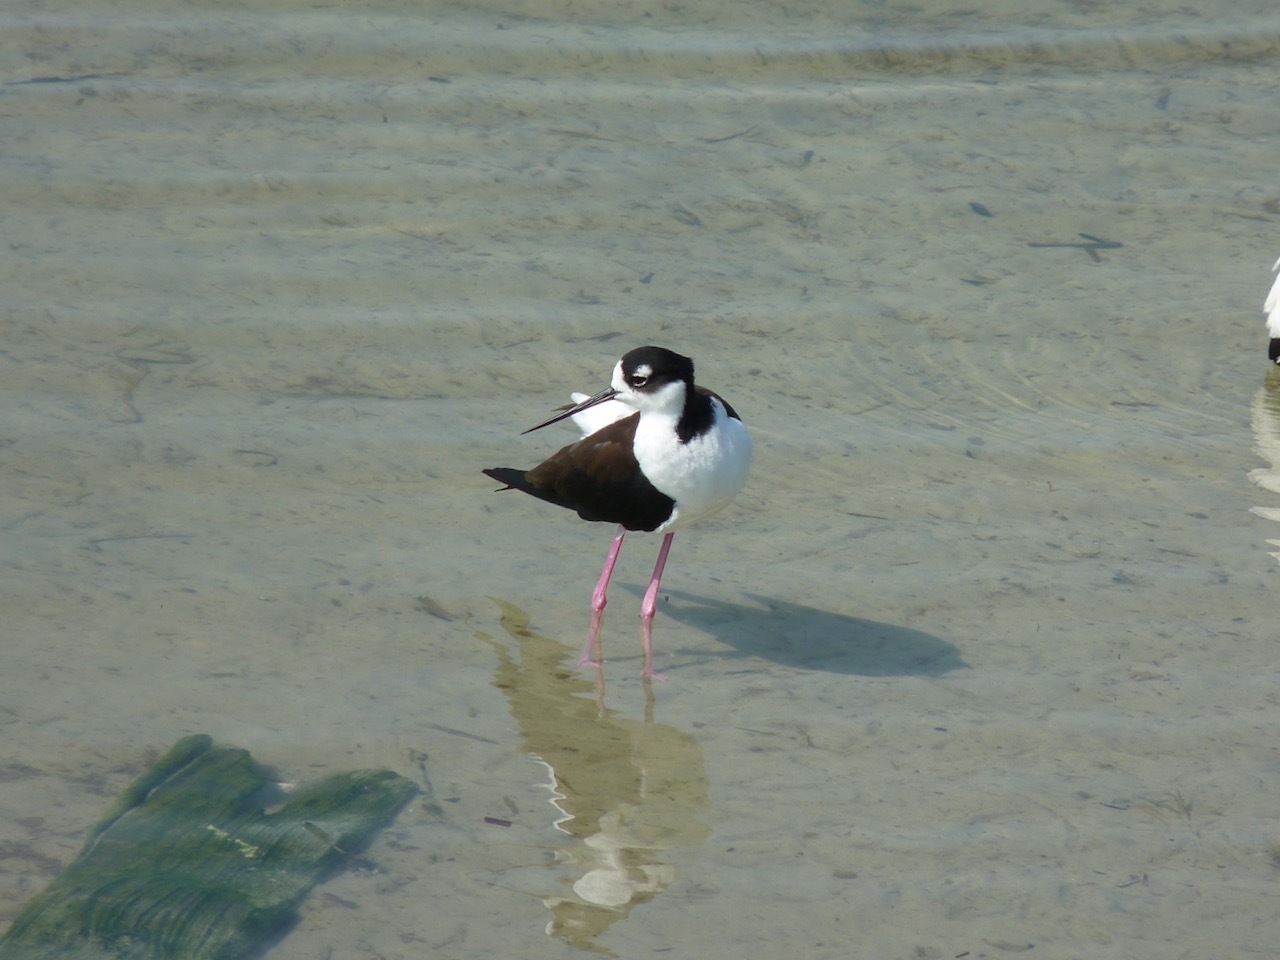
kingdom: Animalia
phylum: Chordata
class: Aves
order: Charadriiformes
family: Recurvirostridae
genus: Himantopus
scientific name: Himantopus mexicanus
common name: Black-necked stilt
